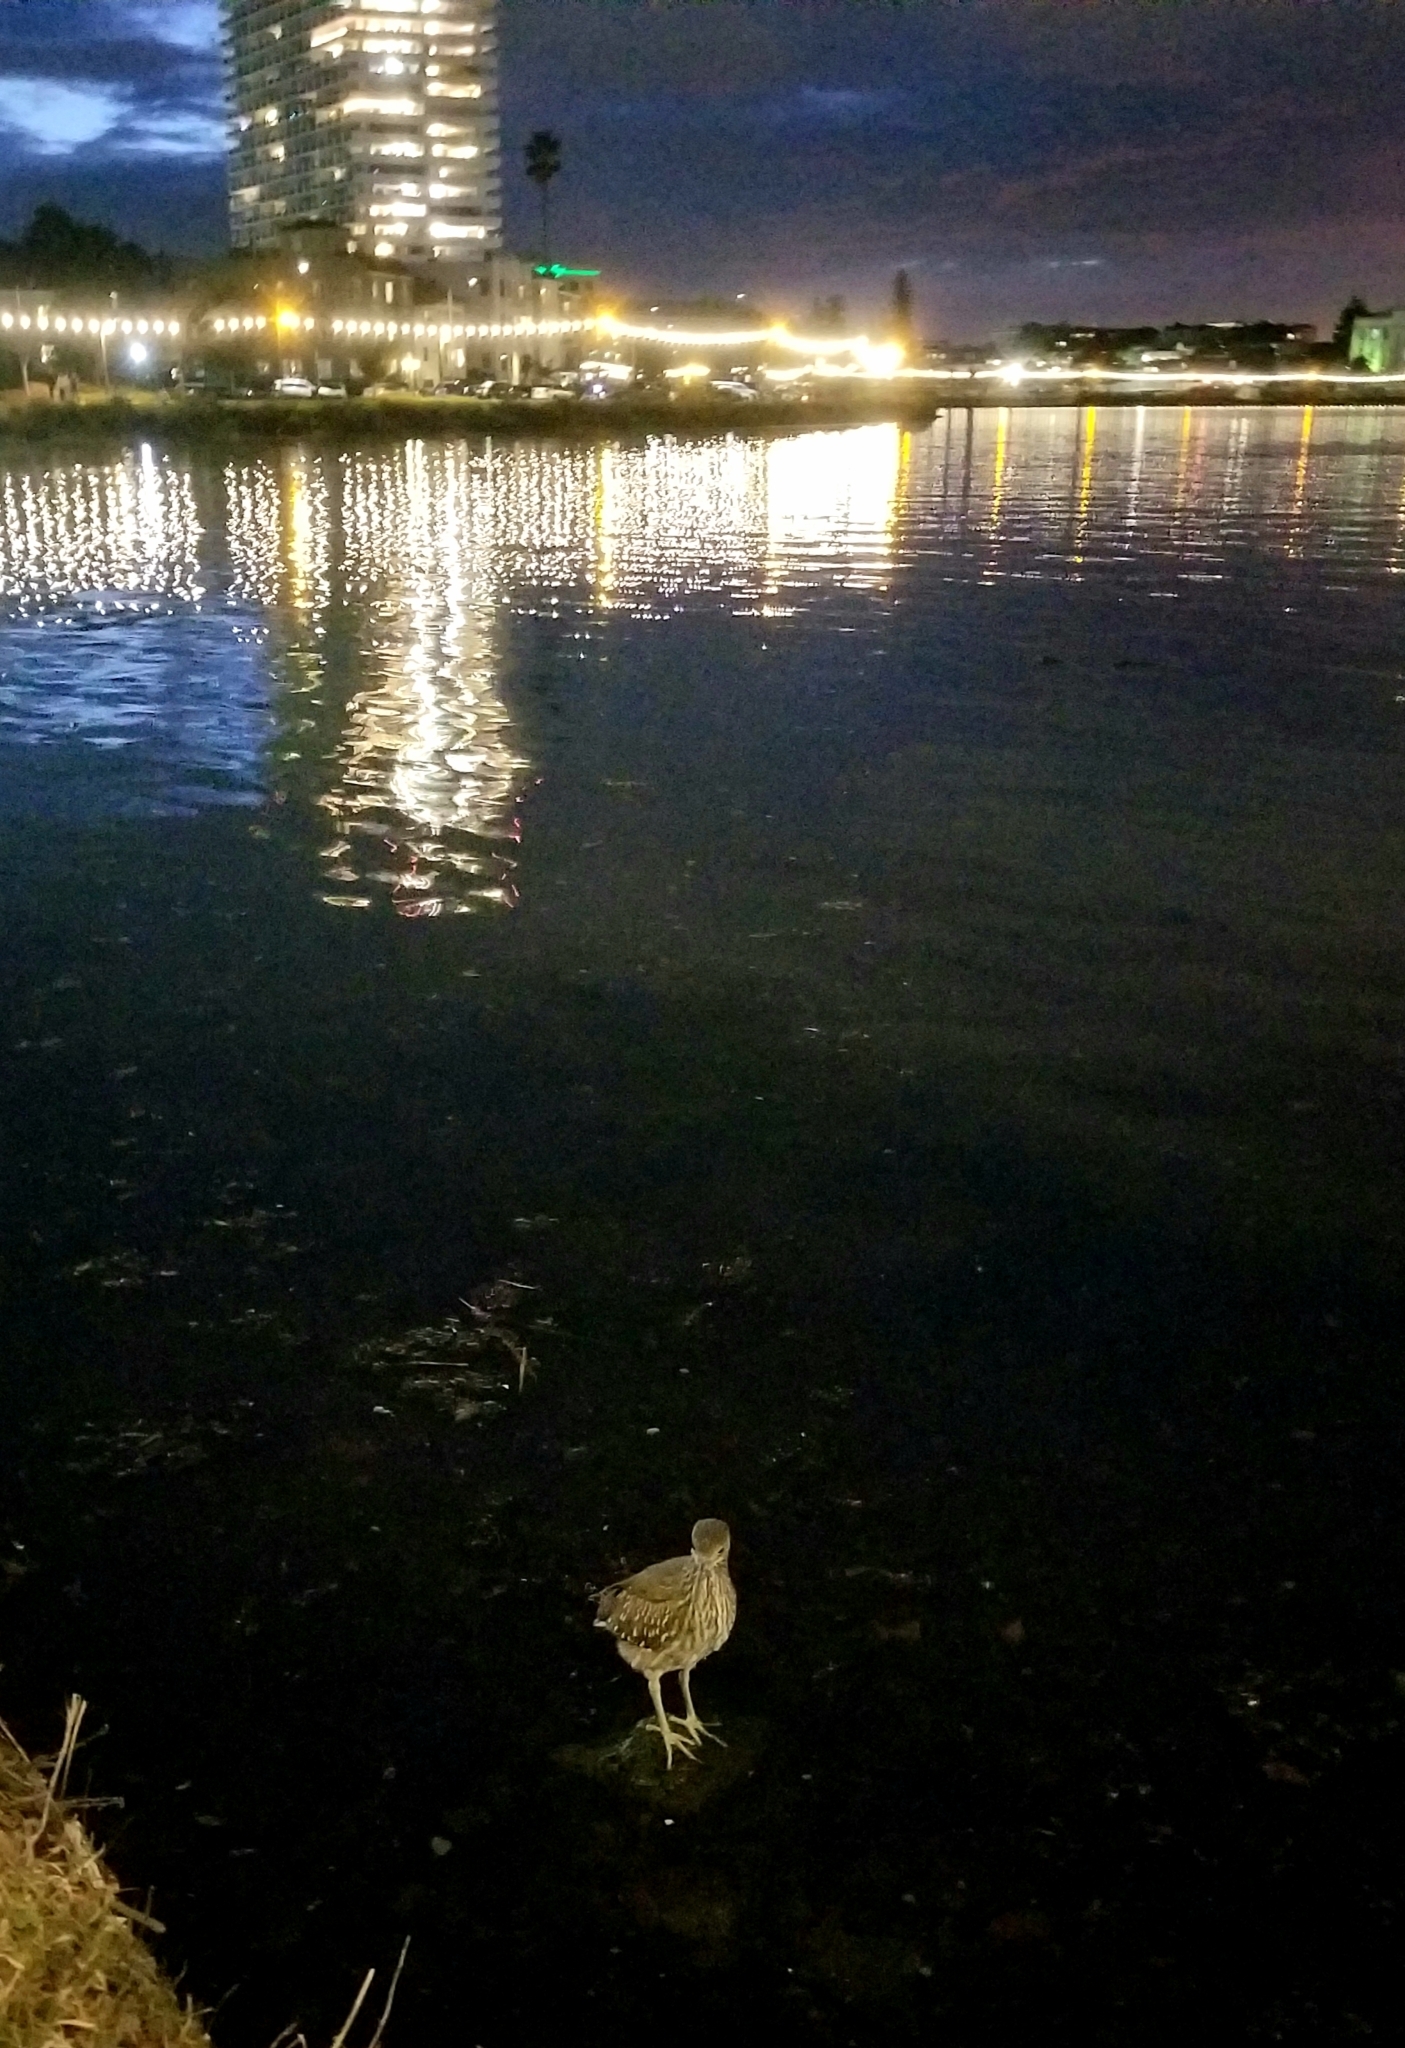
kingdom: Animalia
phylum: Chordata
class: Aves
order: Pelecaniformes
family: Ardeidae
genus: Nycticorax
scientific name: Nycticorax nycticorax
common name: Black-crowned night heron
